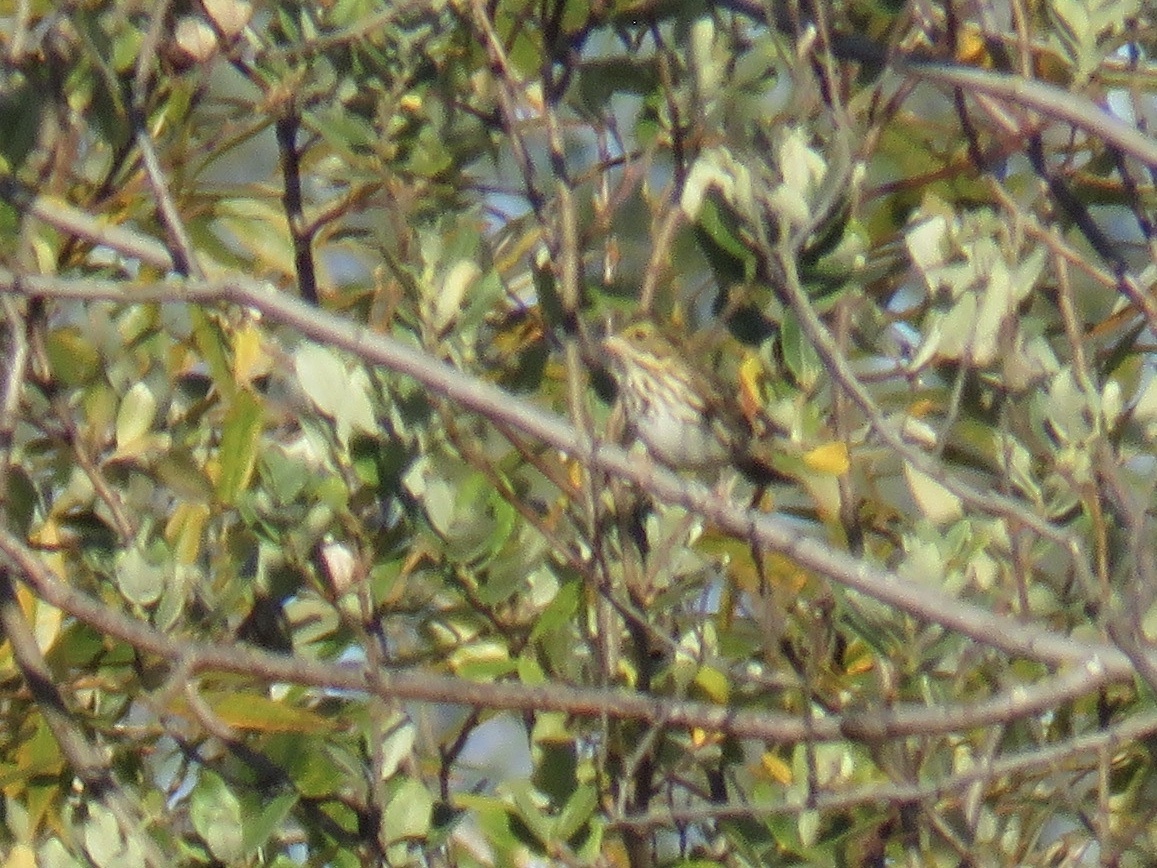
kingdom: Animalia
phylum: Chordata
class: Aves
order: Passeriformes
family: Passerellidae
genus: Passerculus
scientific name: Passerculus sandwichensis
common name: Savannah sparrow
